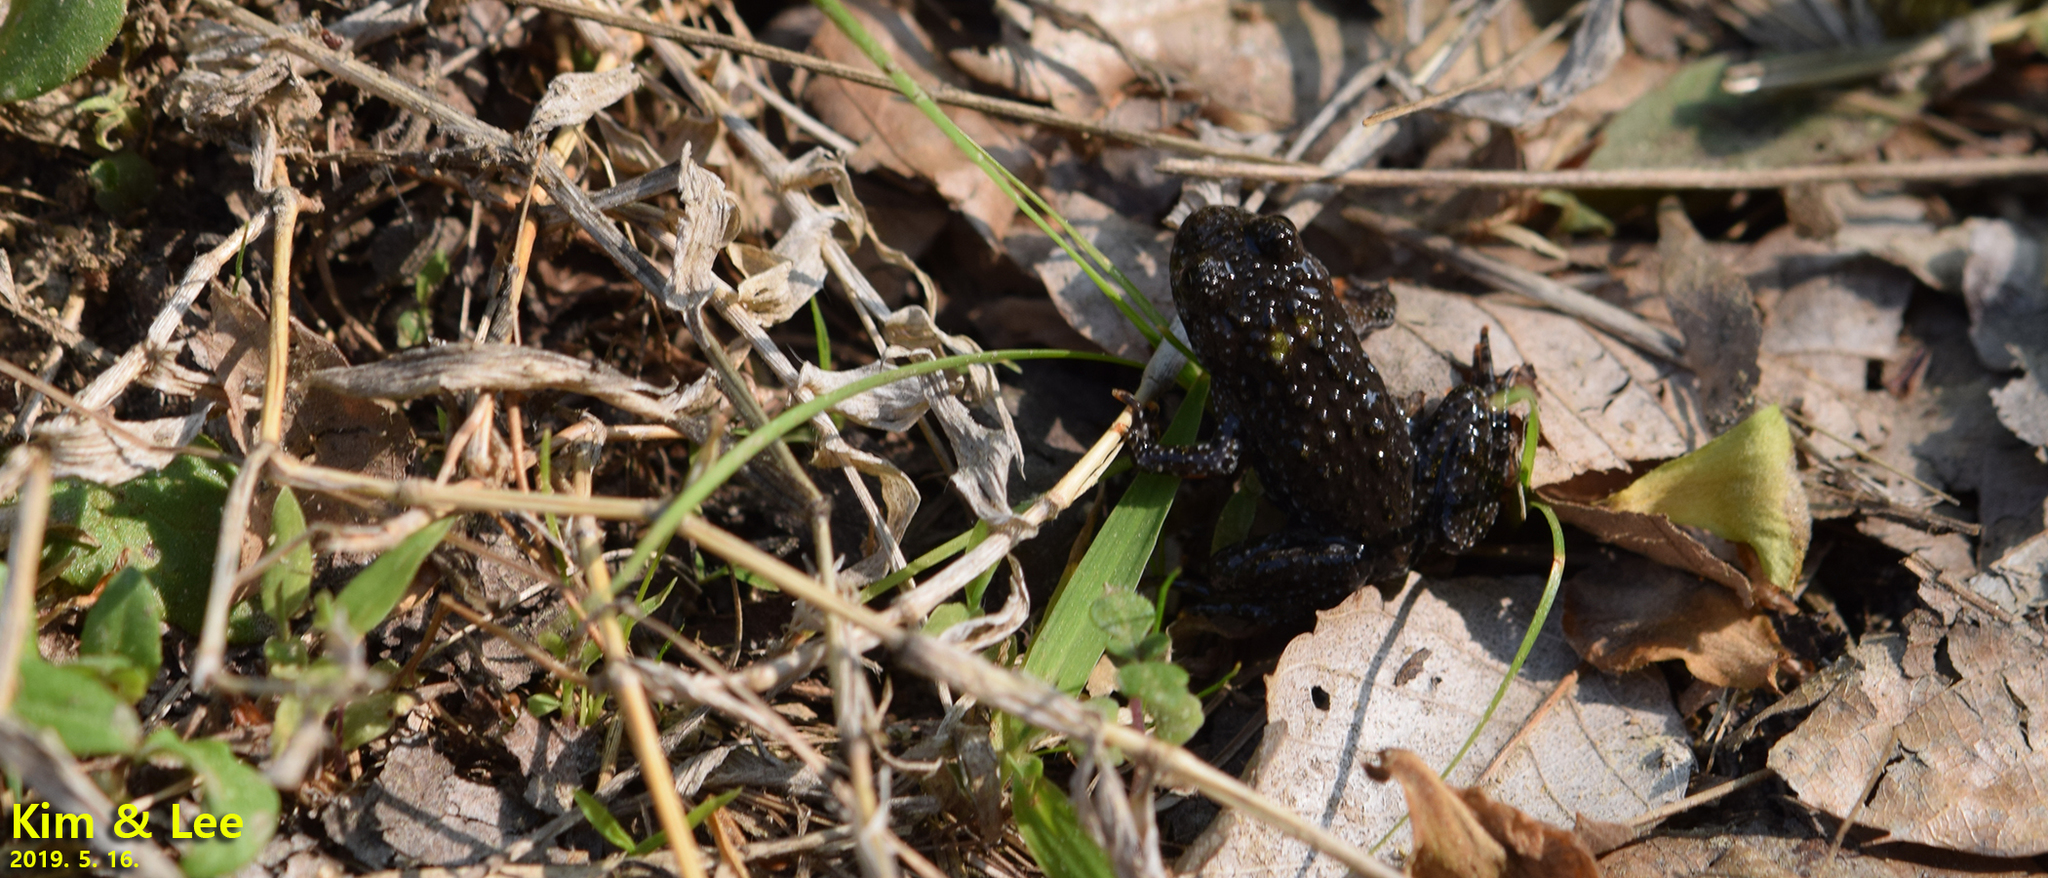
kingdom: Animalia
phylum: Chordata
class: Amphibia
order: Anura
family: Bombinatoridae
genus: Bombina
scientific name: Bombina orientalis
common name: Oriental firebelly toad
